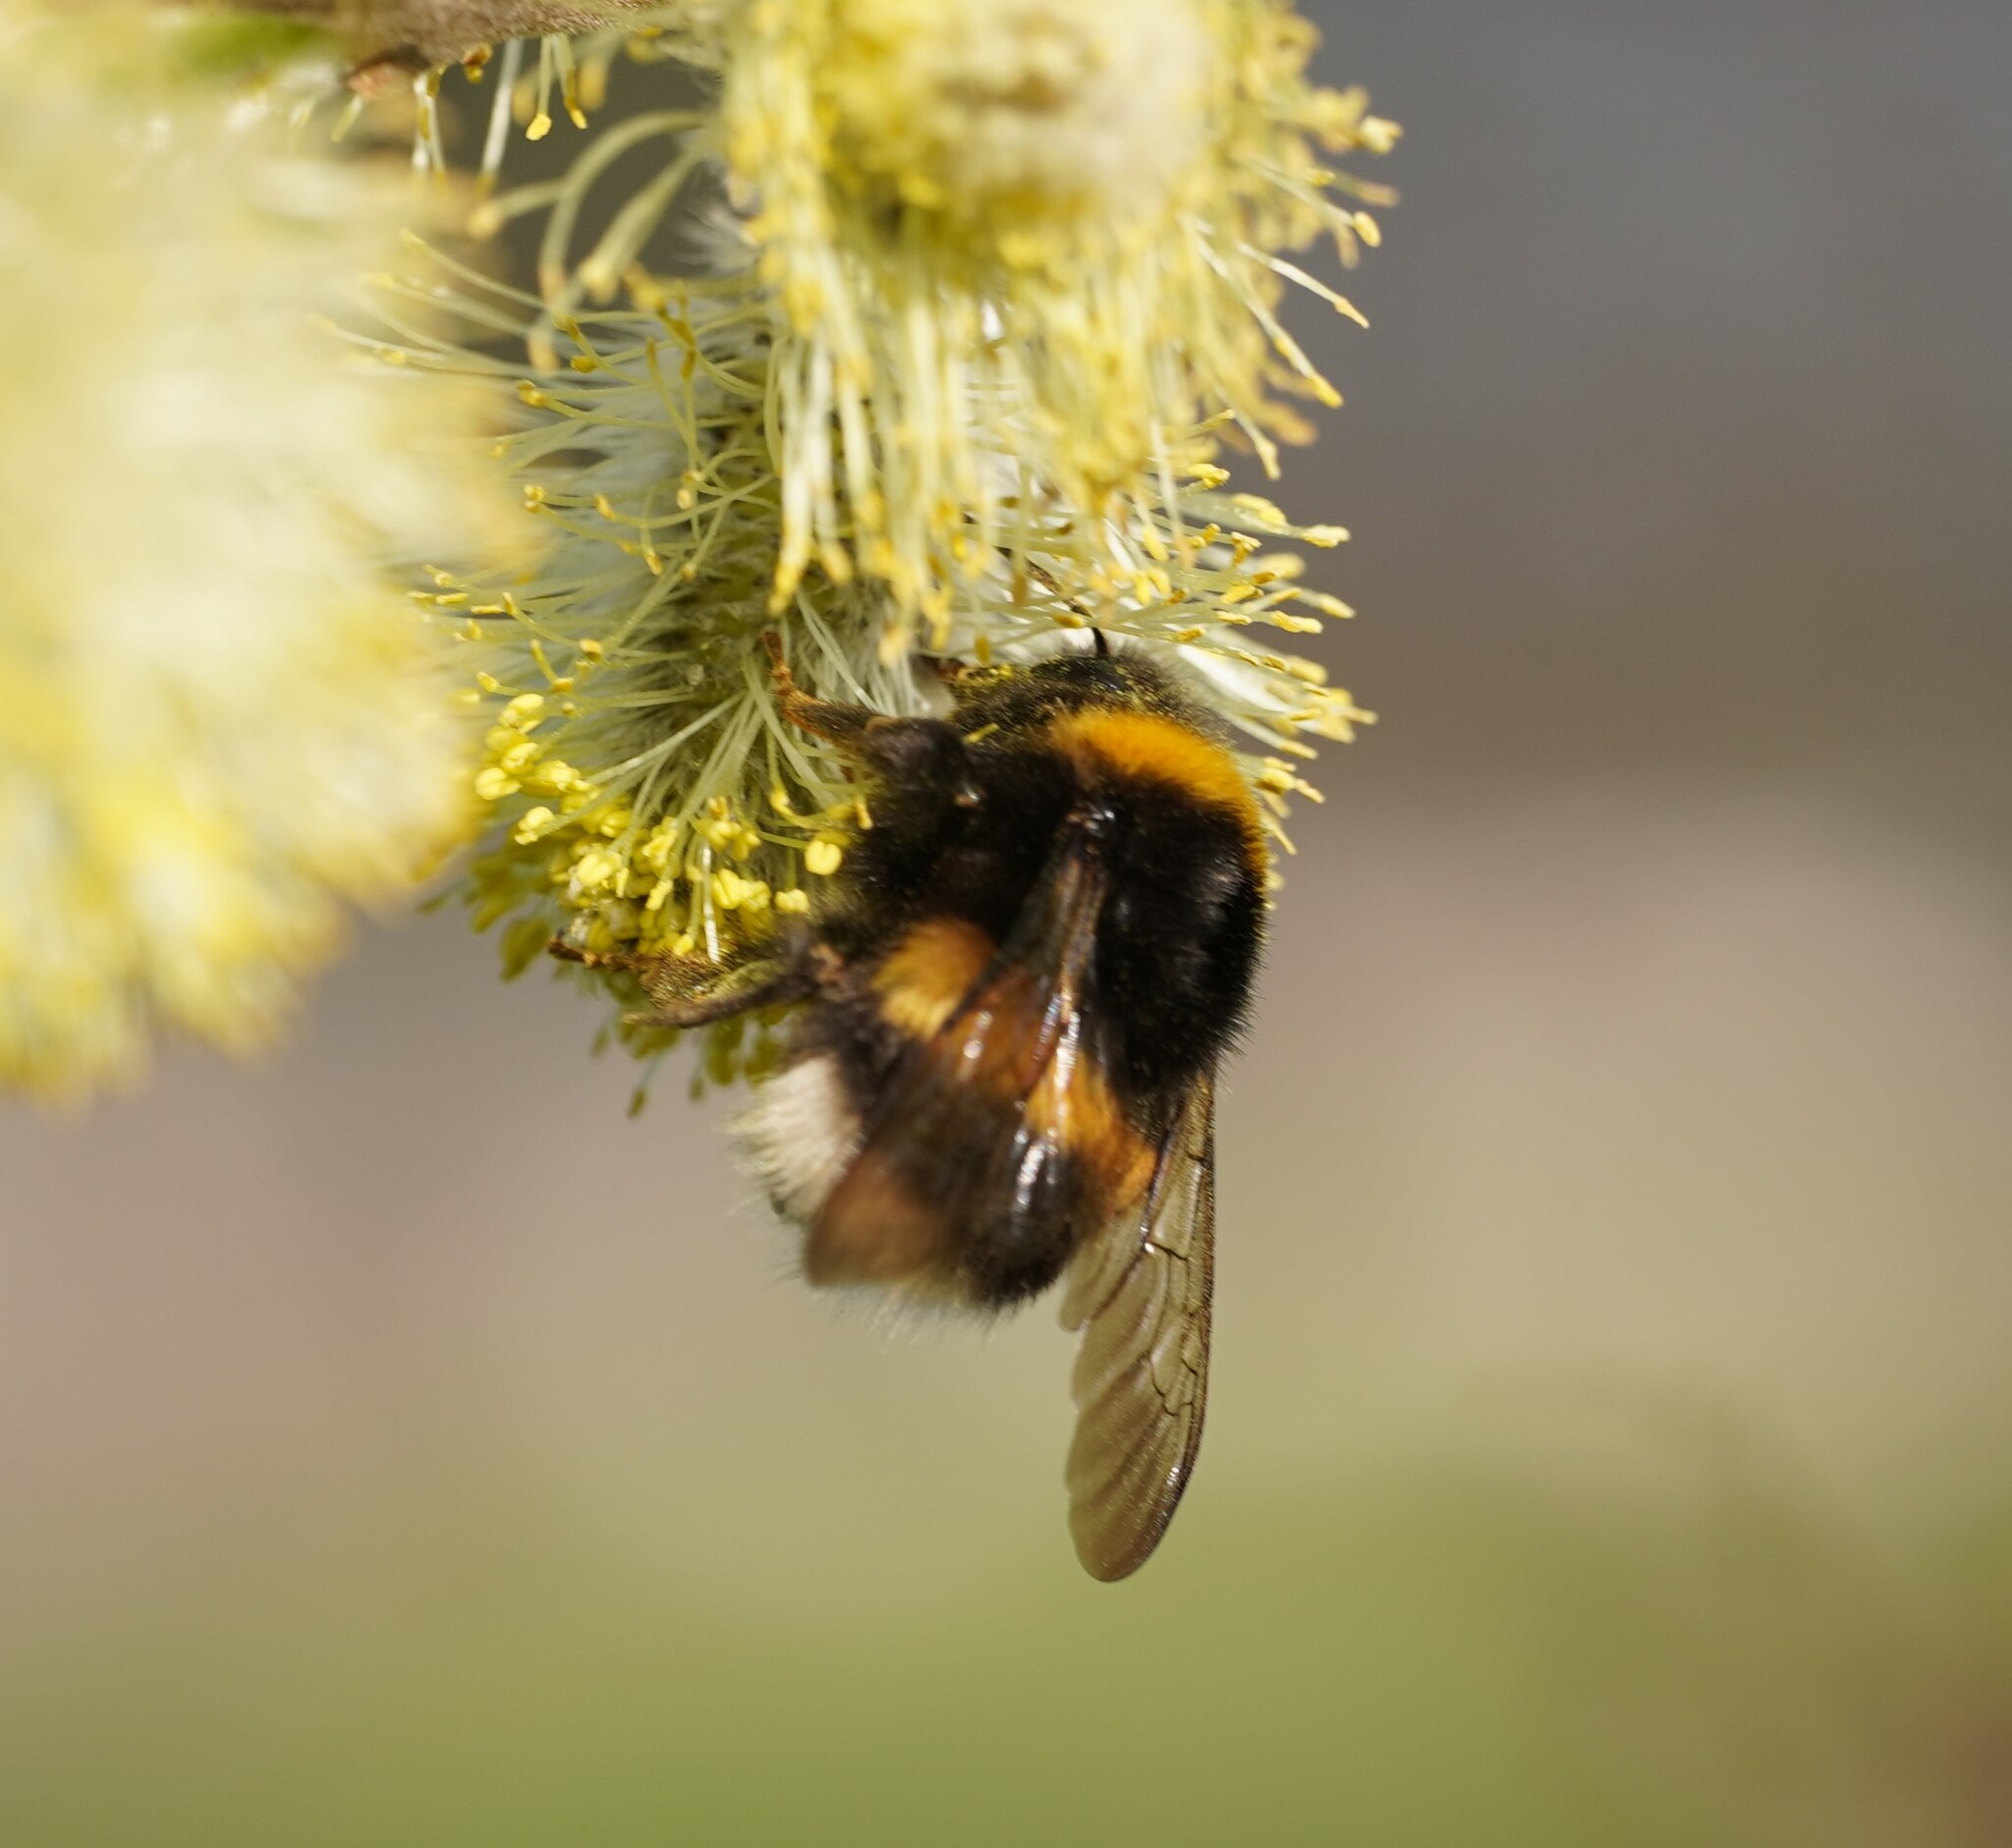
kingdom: Animalia
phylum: Arthropoda
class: Insecta
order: Hymenoptera
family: Apidae
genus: Bombus
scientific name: Bombus
